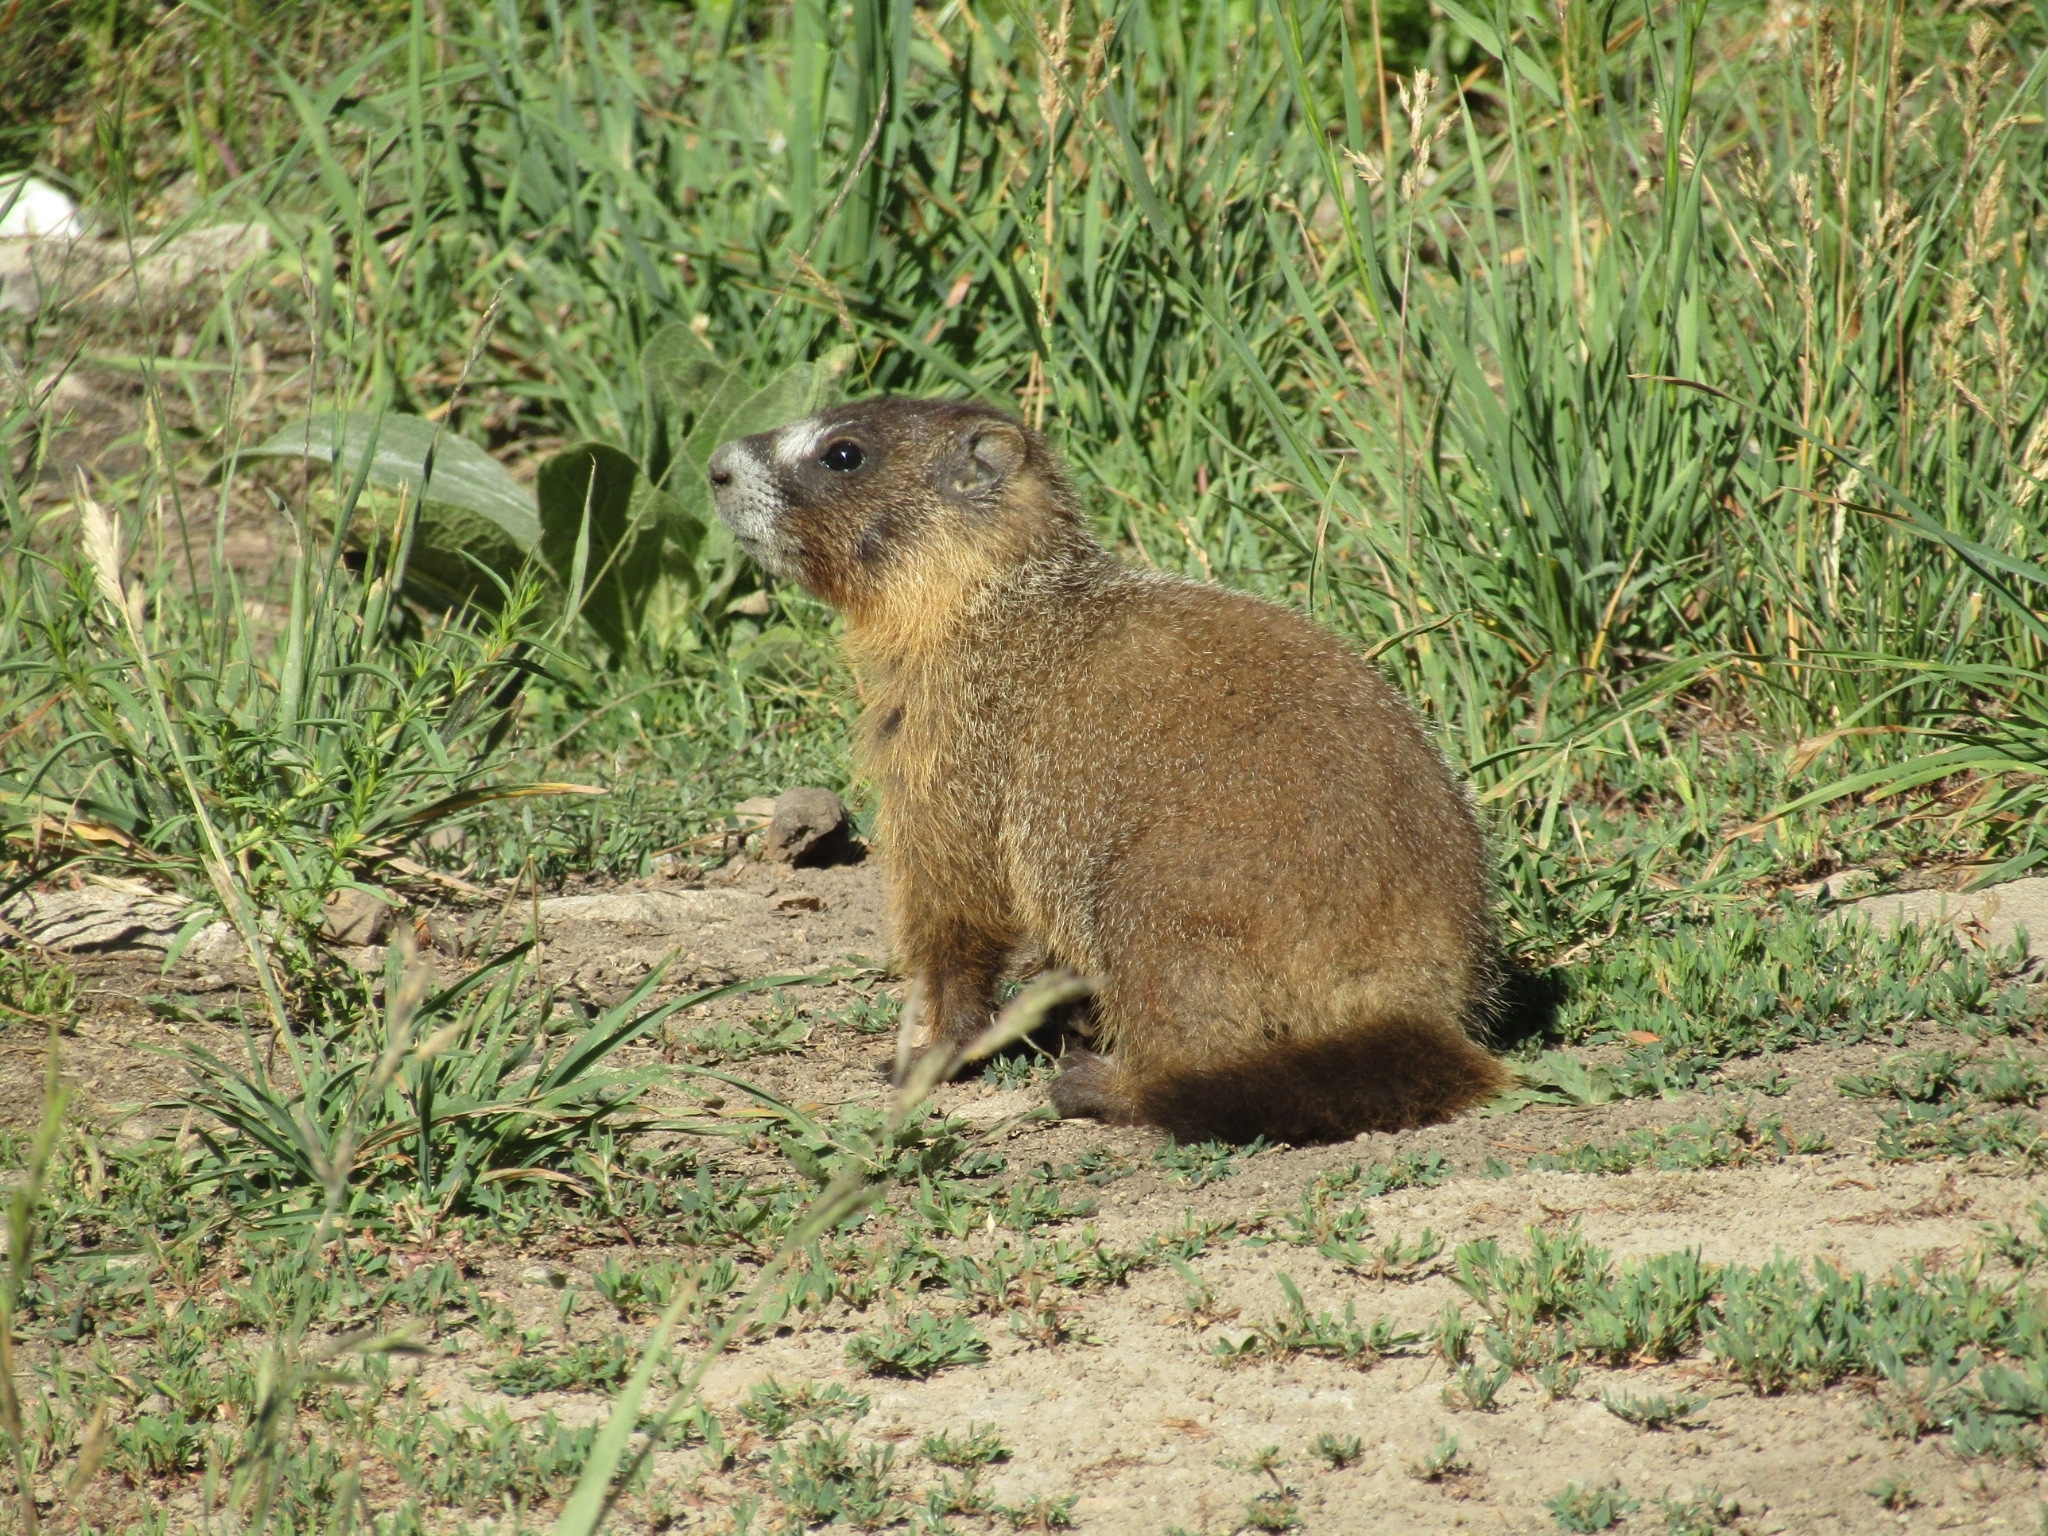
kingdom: Animalia
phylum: Chordata
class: Mammalia
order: Rodentia
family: Sciuridae
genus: Marmota
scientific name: Marmota flaviventris
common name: Yellow-bellied marmot
